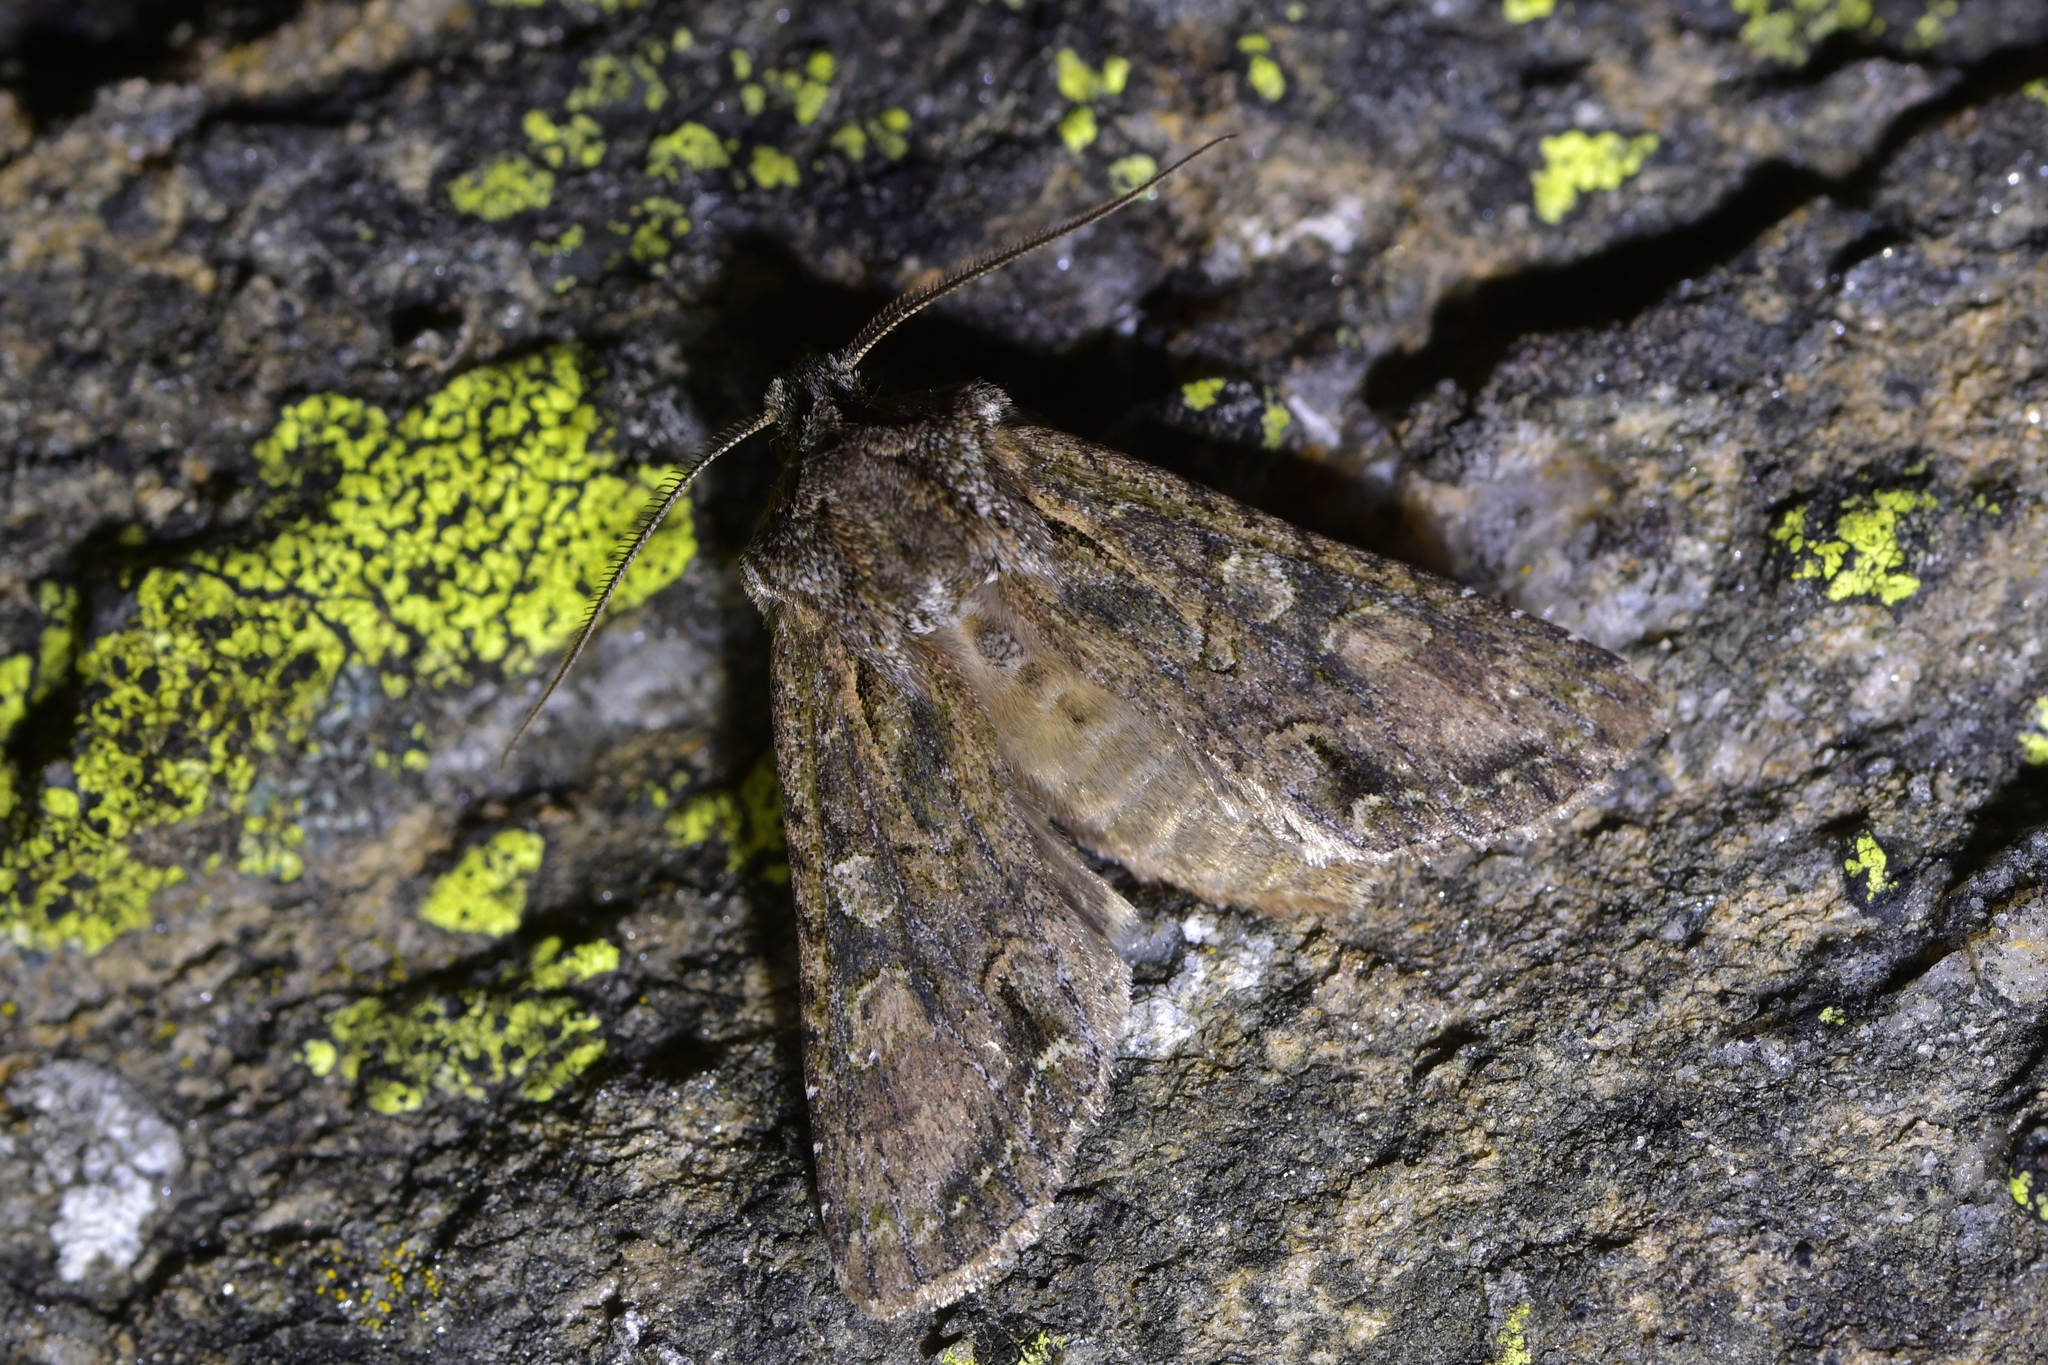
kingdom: Animalia
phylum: Arthropoda
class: Insecta
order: Lepidoptera
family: Noctuidae
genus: Ichneutica
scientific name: Ichneutica mutans
